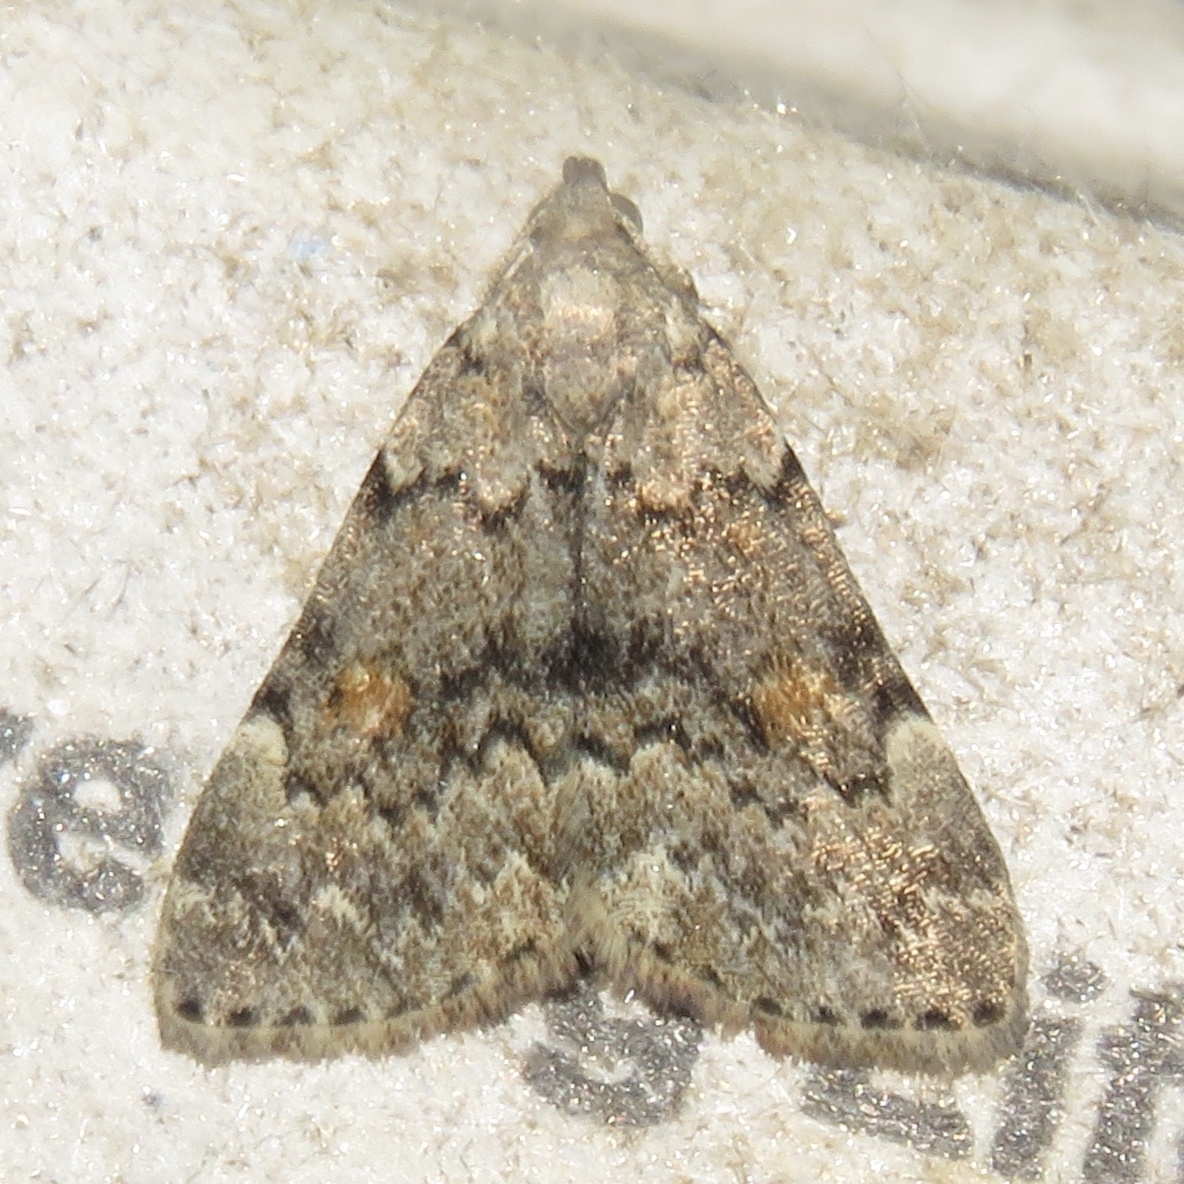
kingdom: Animalia
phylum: Arthropoda
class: Insecta
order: Lepidoptera
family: Erebidae
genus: Idia
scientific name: Idia aemula
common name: Common idia moth
